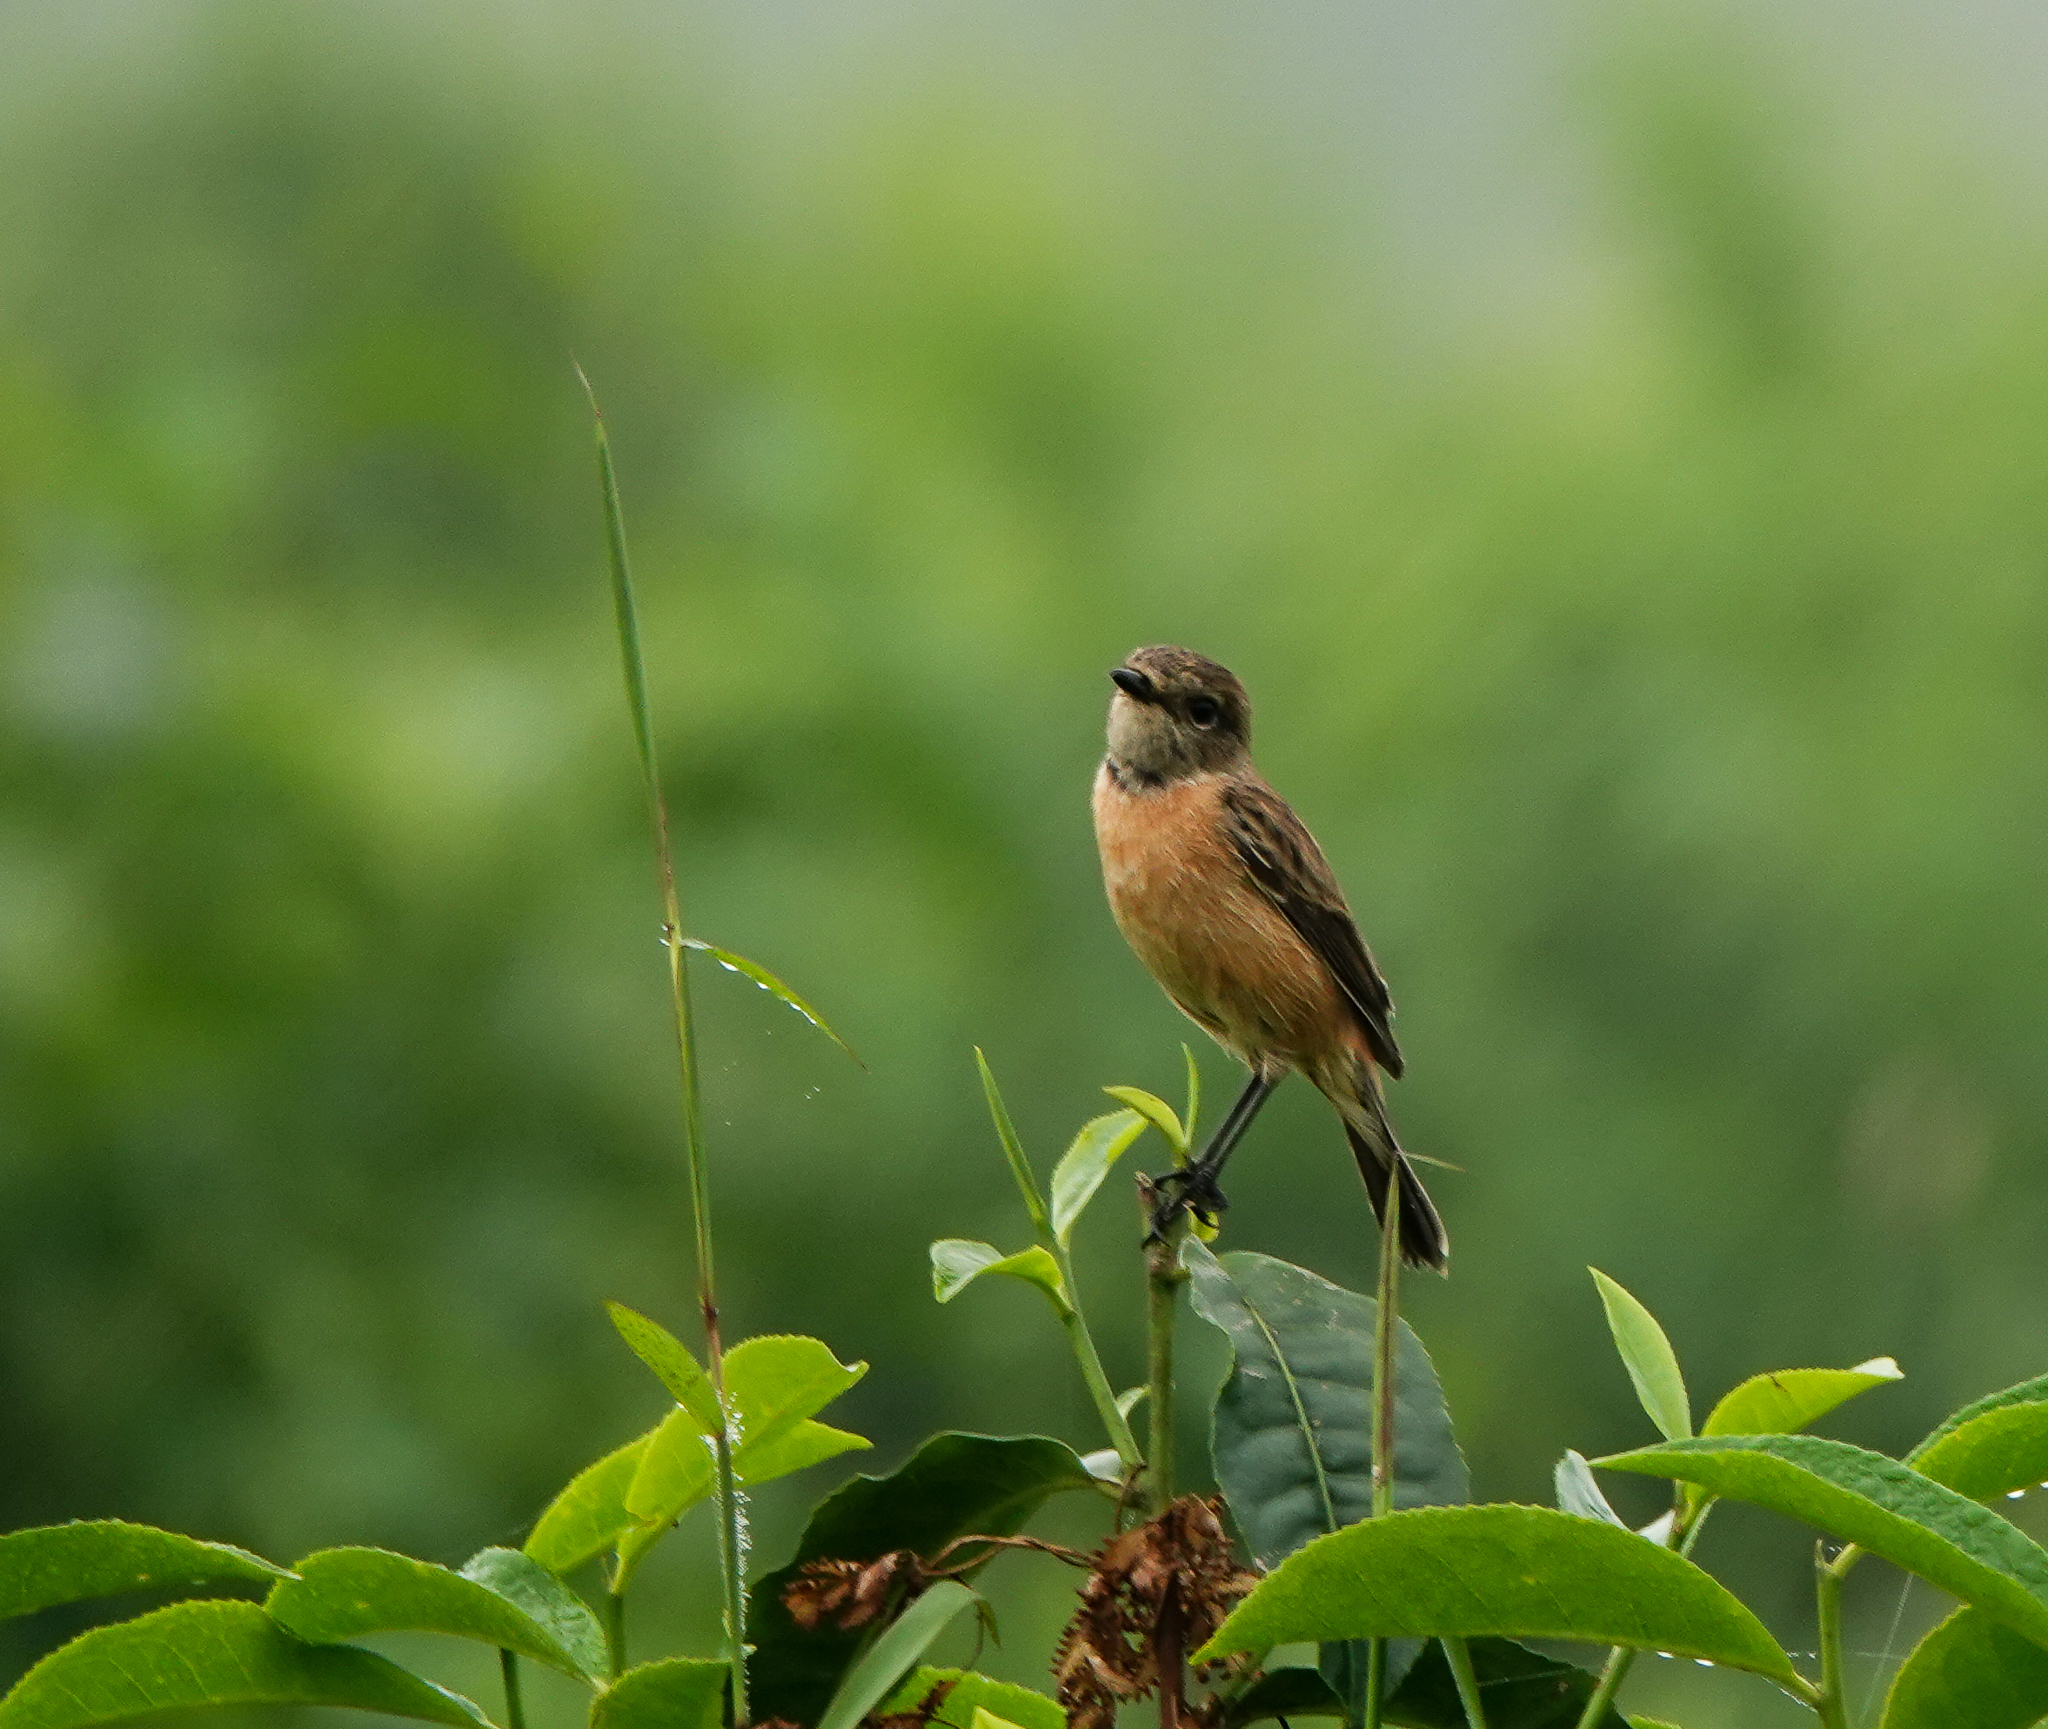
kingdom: Animalia
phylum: Chordata
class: Aves
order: Passeriformes
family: Muscicapidae
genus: Saxicola
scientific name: Saxicola maurus
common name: Siberian stonechat
